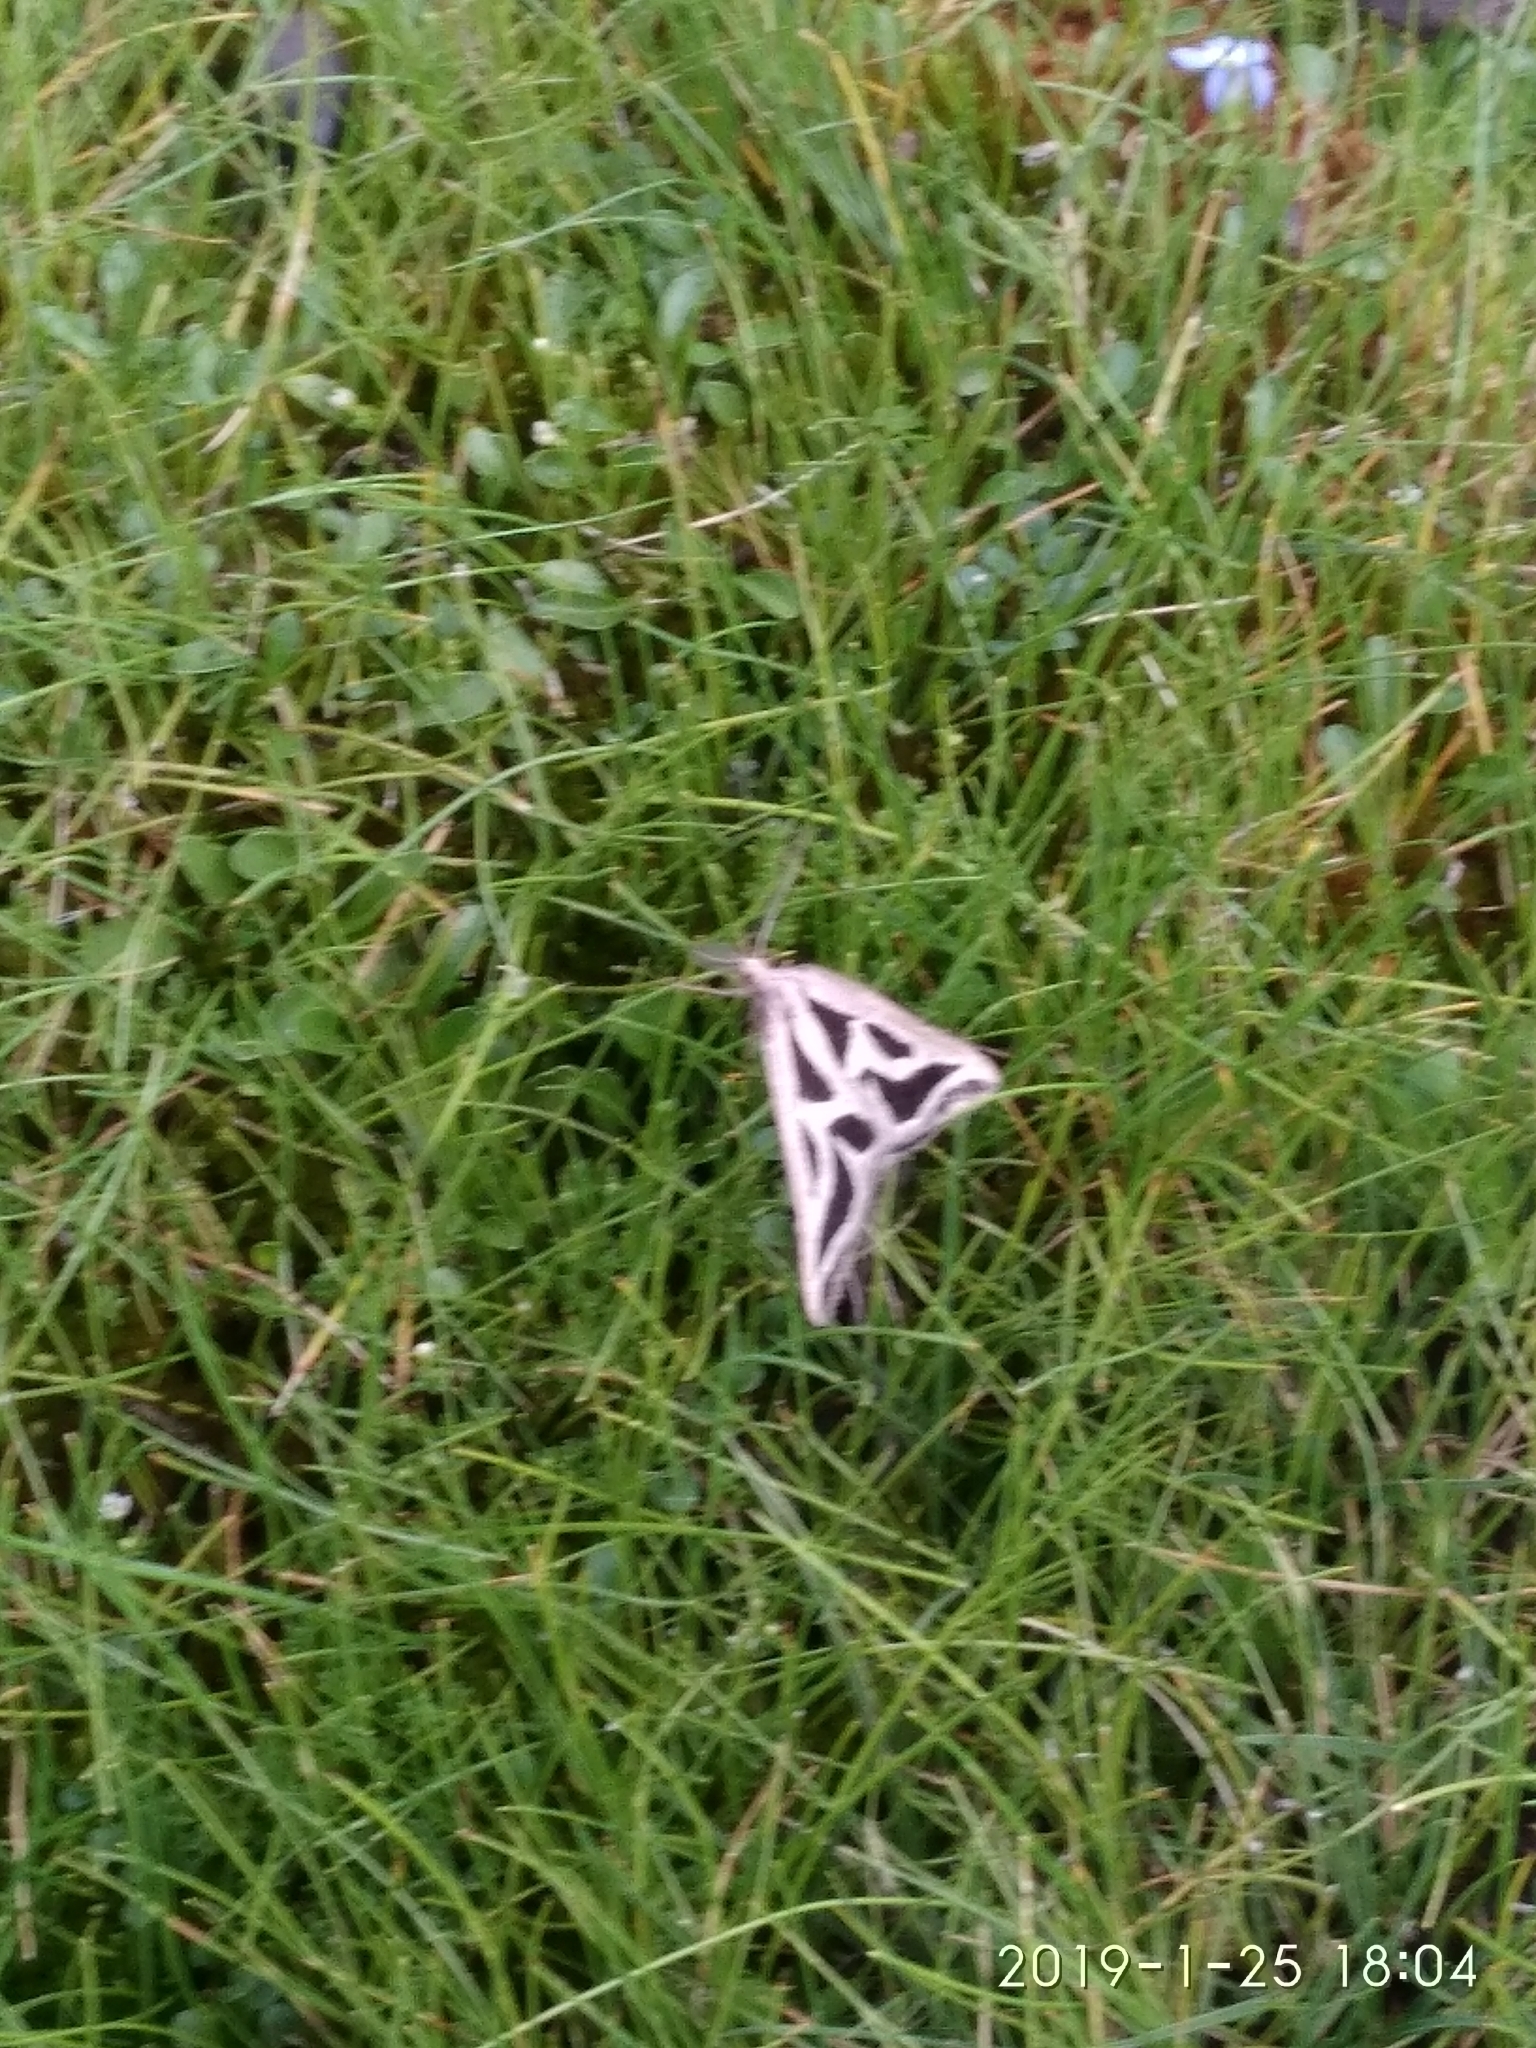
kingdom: Animalia
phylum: Arthropoda
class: Insecta
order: Lepidoptera
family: Geometridae
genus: Pseudomaenas
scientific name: Pseudomaenas dukei
